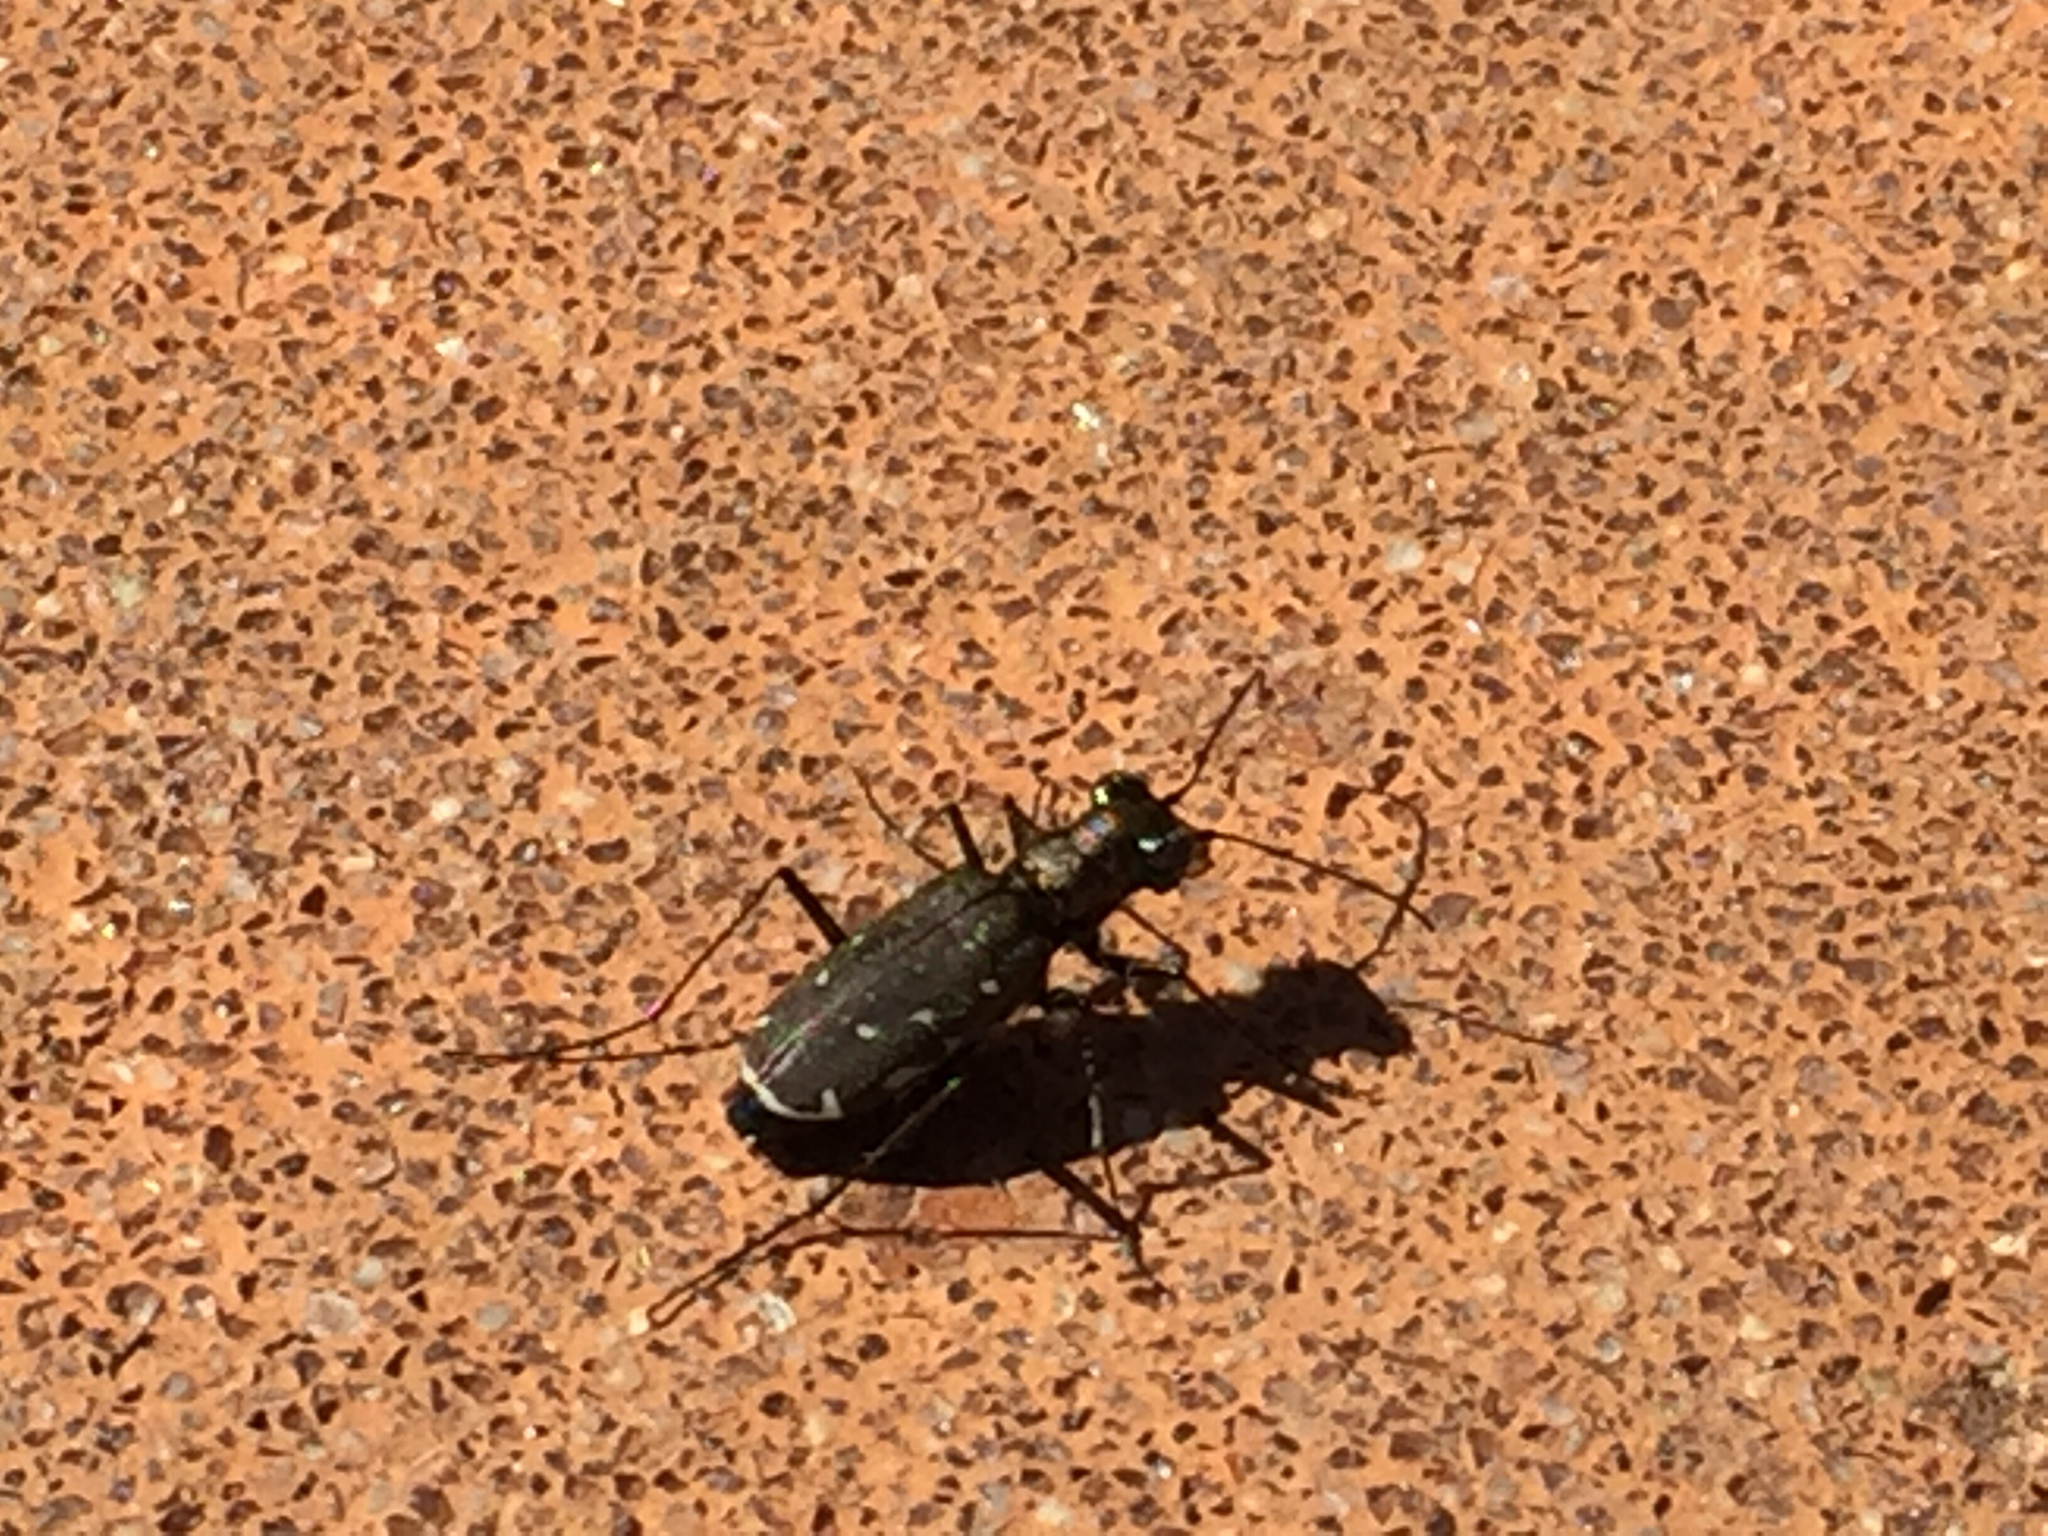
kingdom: Animalia
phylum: Arthropoda
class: Insecta
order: Coleoptera
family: Carabidae
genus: Cicindela
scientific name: Cicindela punctulata
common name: Punctured tiger beetle
